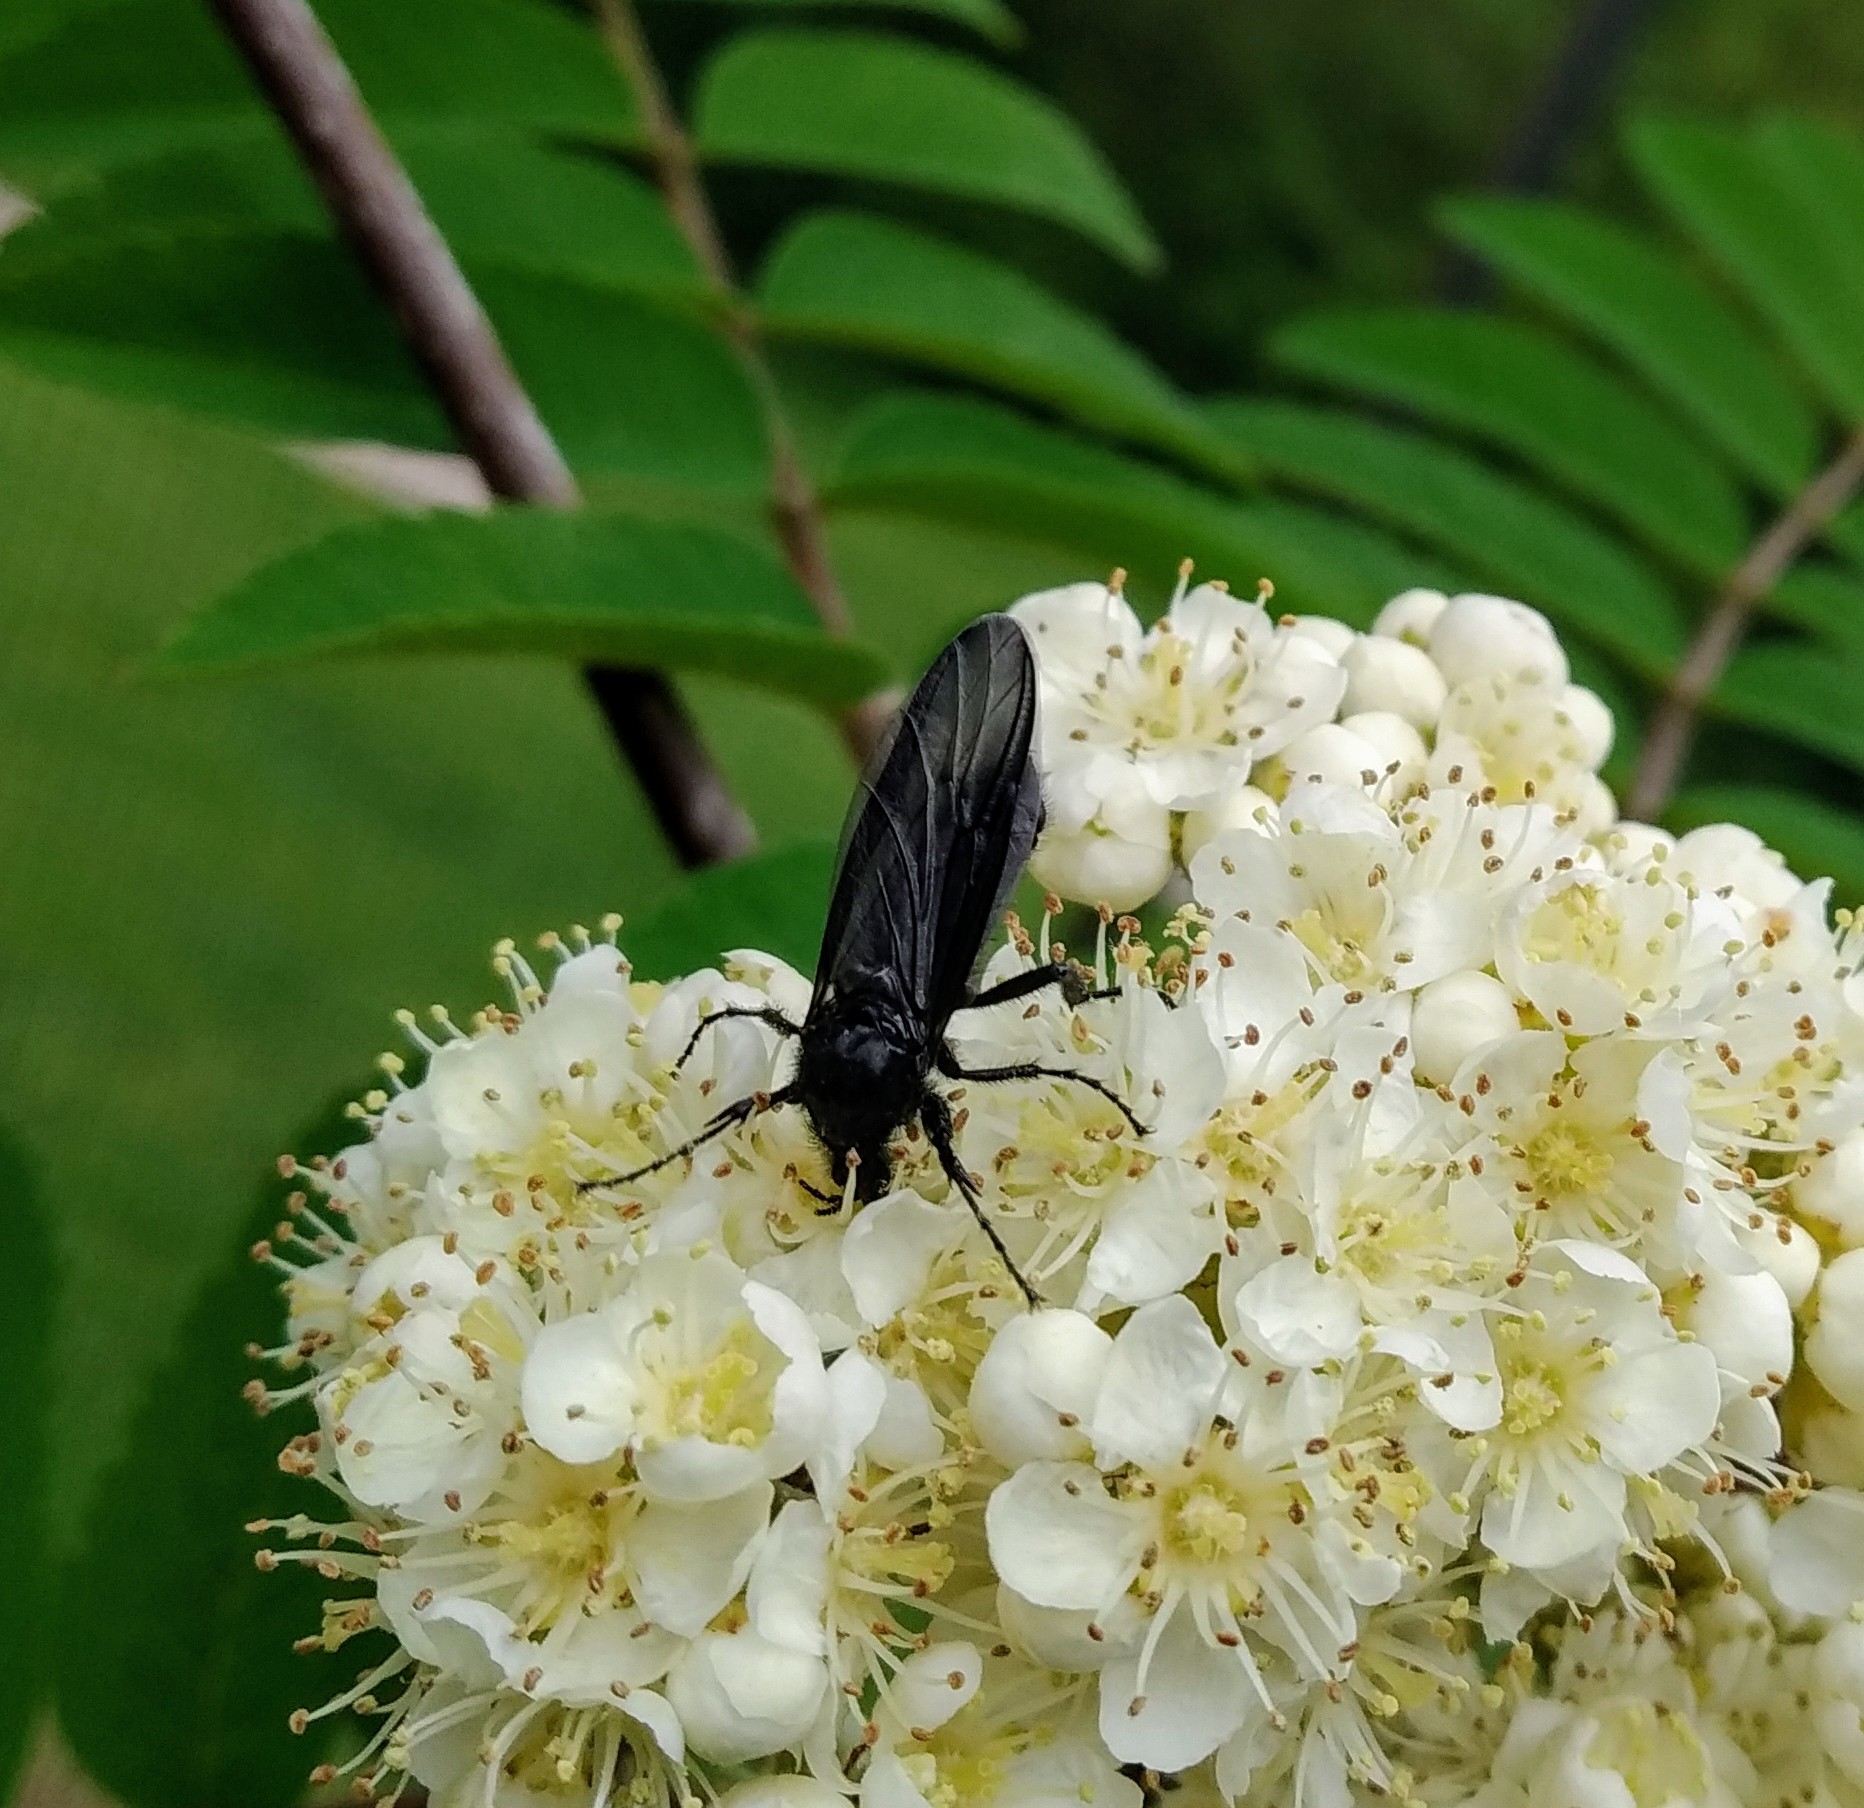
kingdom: Animalia
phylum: Arthropoda
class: Insecta
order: Diptera
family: Bibionidae
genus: Bibio
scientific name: Bibio marci
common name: St marks fly
